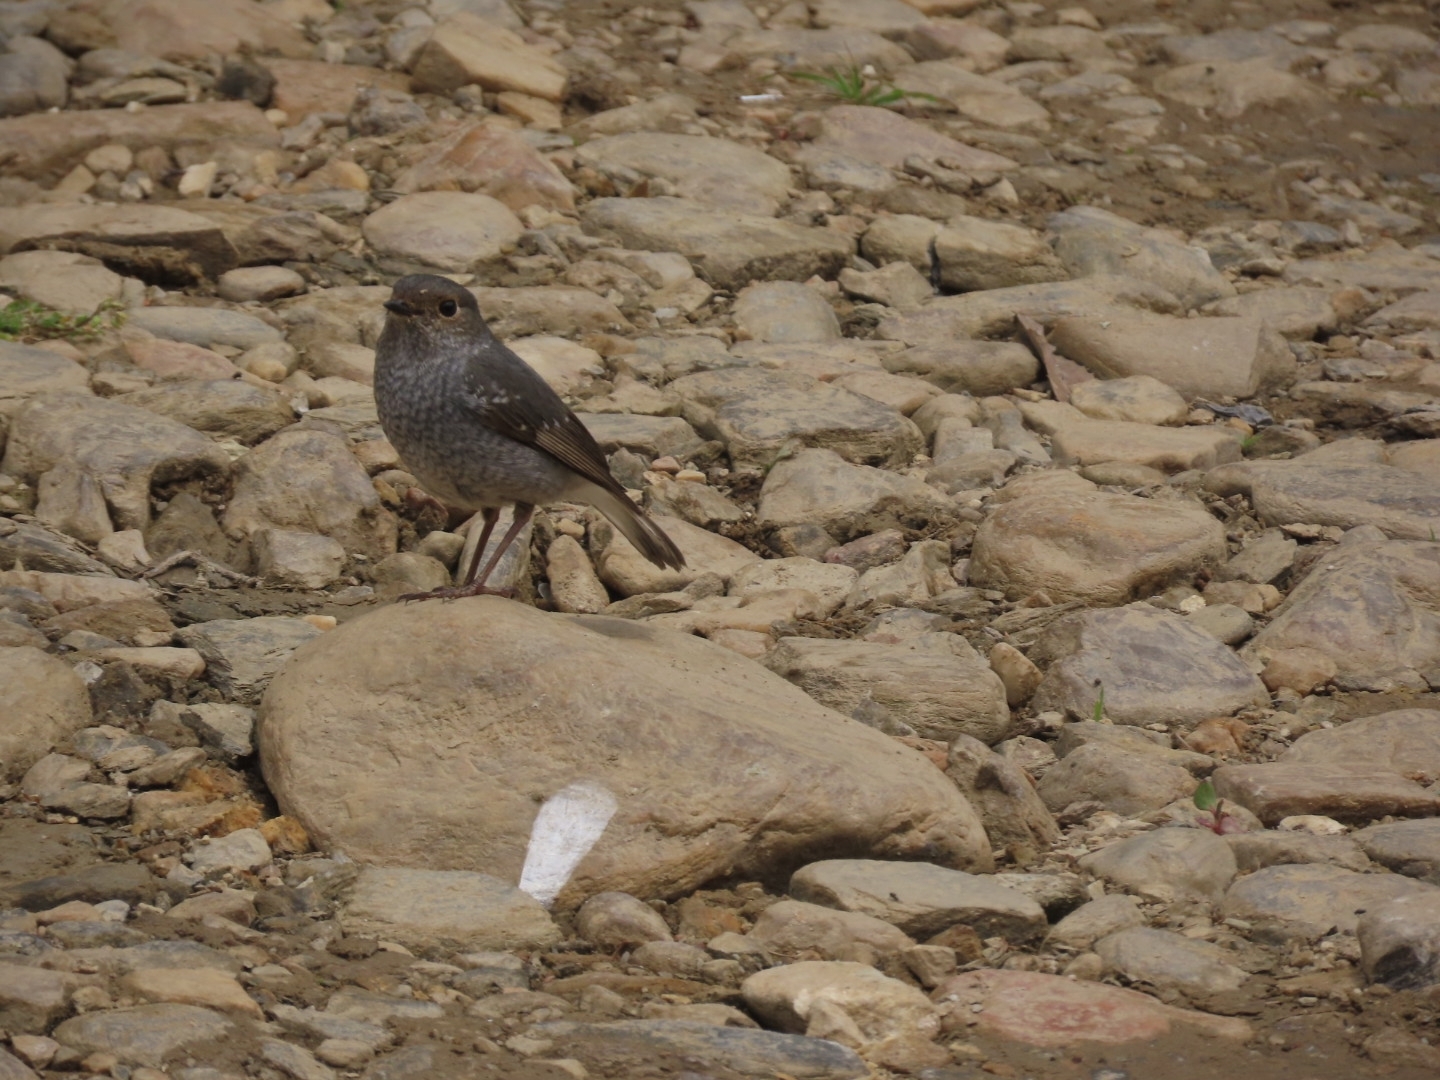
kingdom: Animalia
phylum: Chordata
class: Aves
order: Passeriformes
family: Muscicapidae
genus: Phoenicurus
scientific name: Phoenicurus fuliginosus
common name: Plumbeous water redstart
